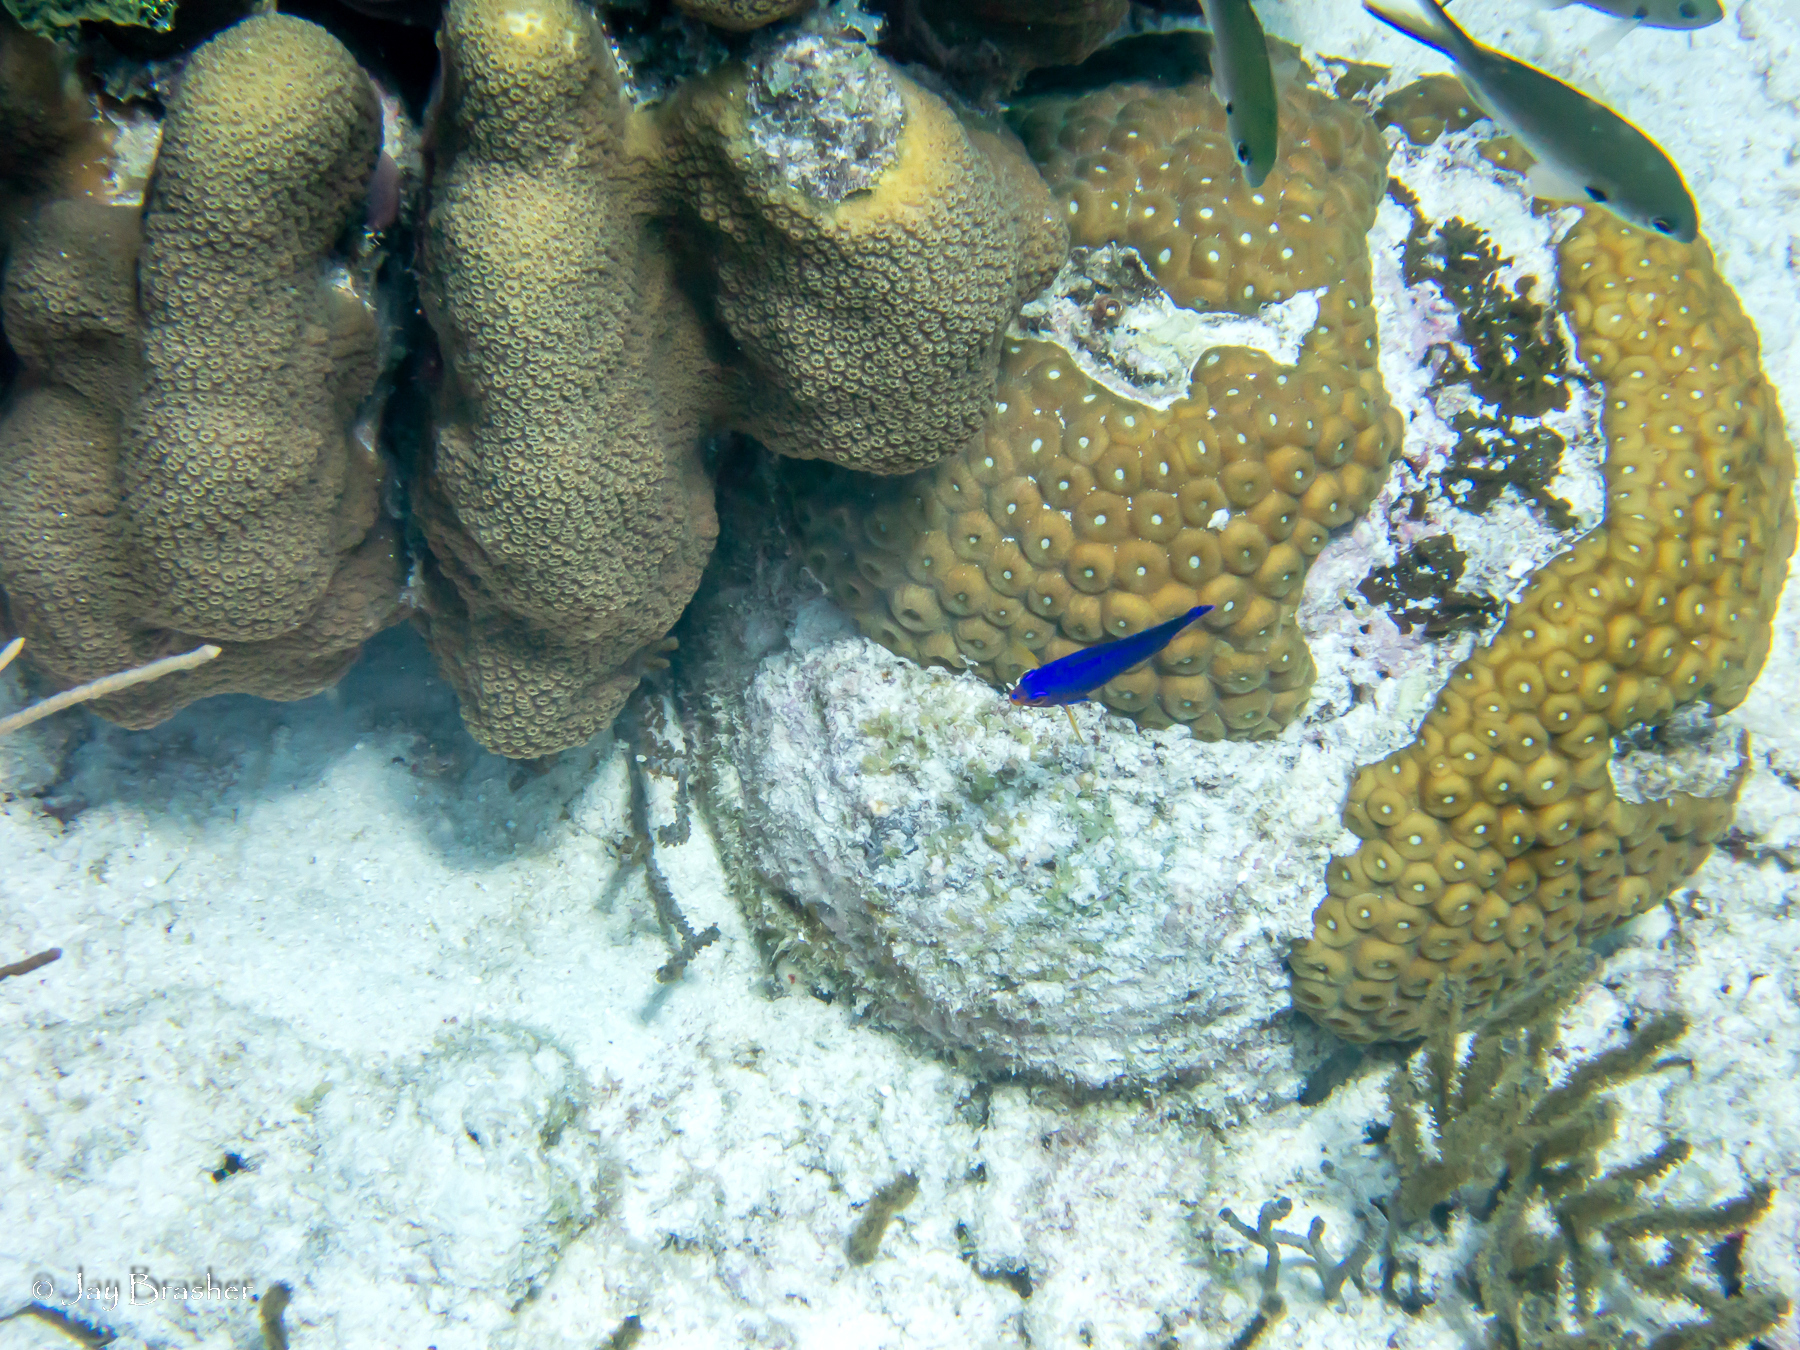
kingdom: Animalia
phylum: Chordata
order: Perciformes
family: Pomacanthidae
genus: Centropyge
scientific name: Centropyge argi
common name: Cherubfish
